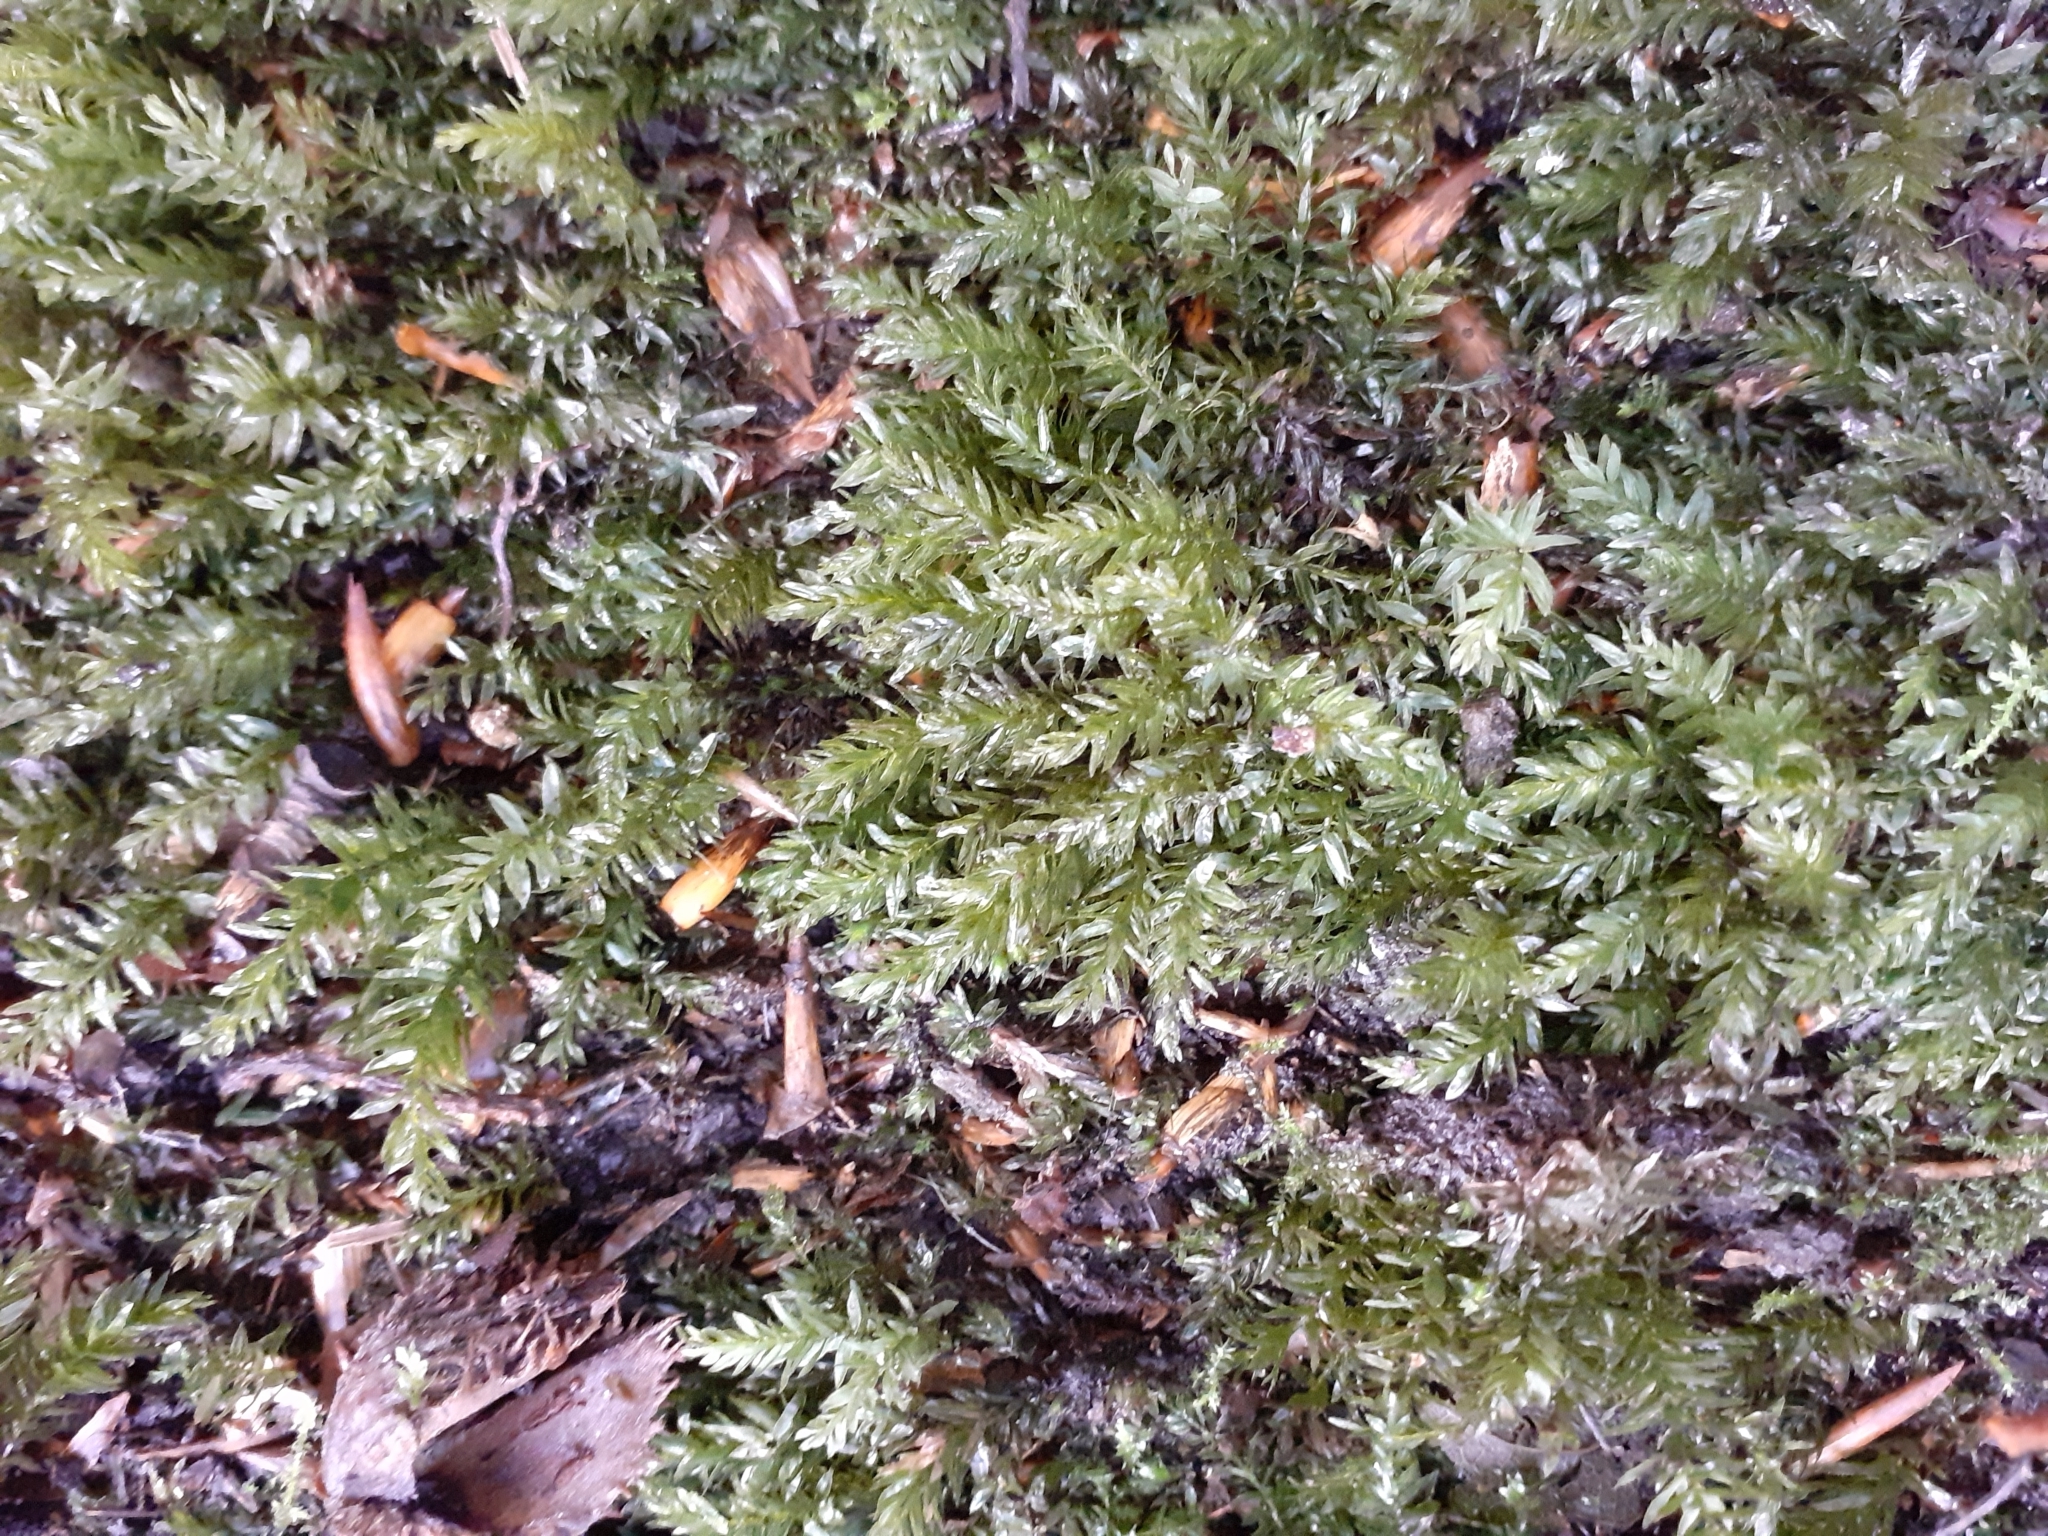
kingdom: Plantae
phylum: Bryophyta
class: Bryopsida
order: Bryales
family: Mniaceae
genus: Mnium
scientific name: Mnium hornum
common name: Swan's-neck leafy moss
